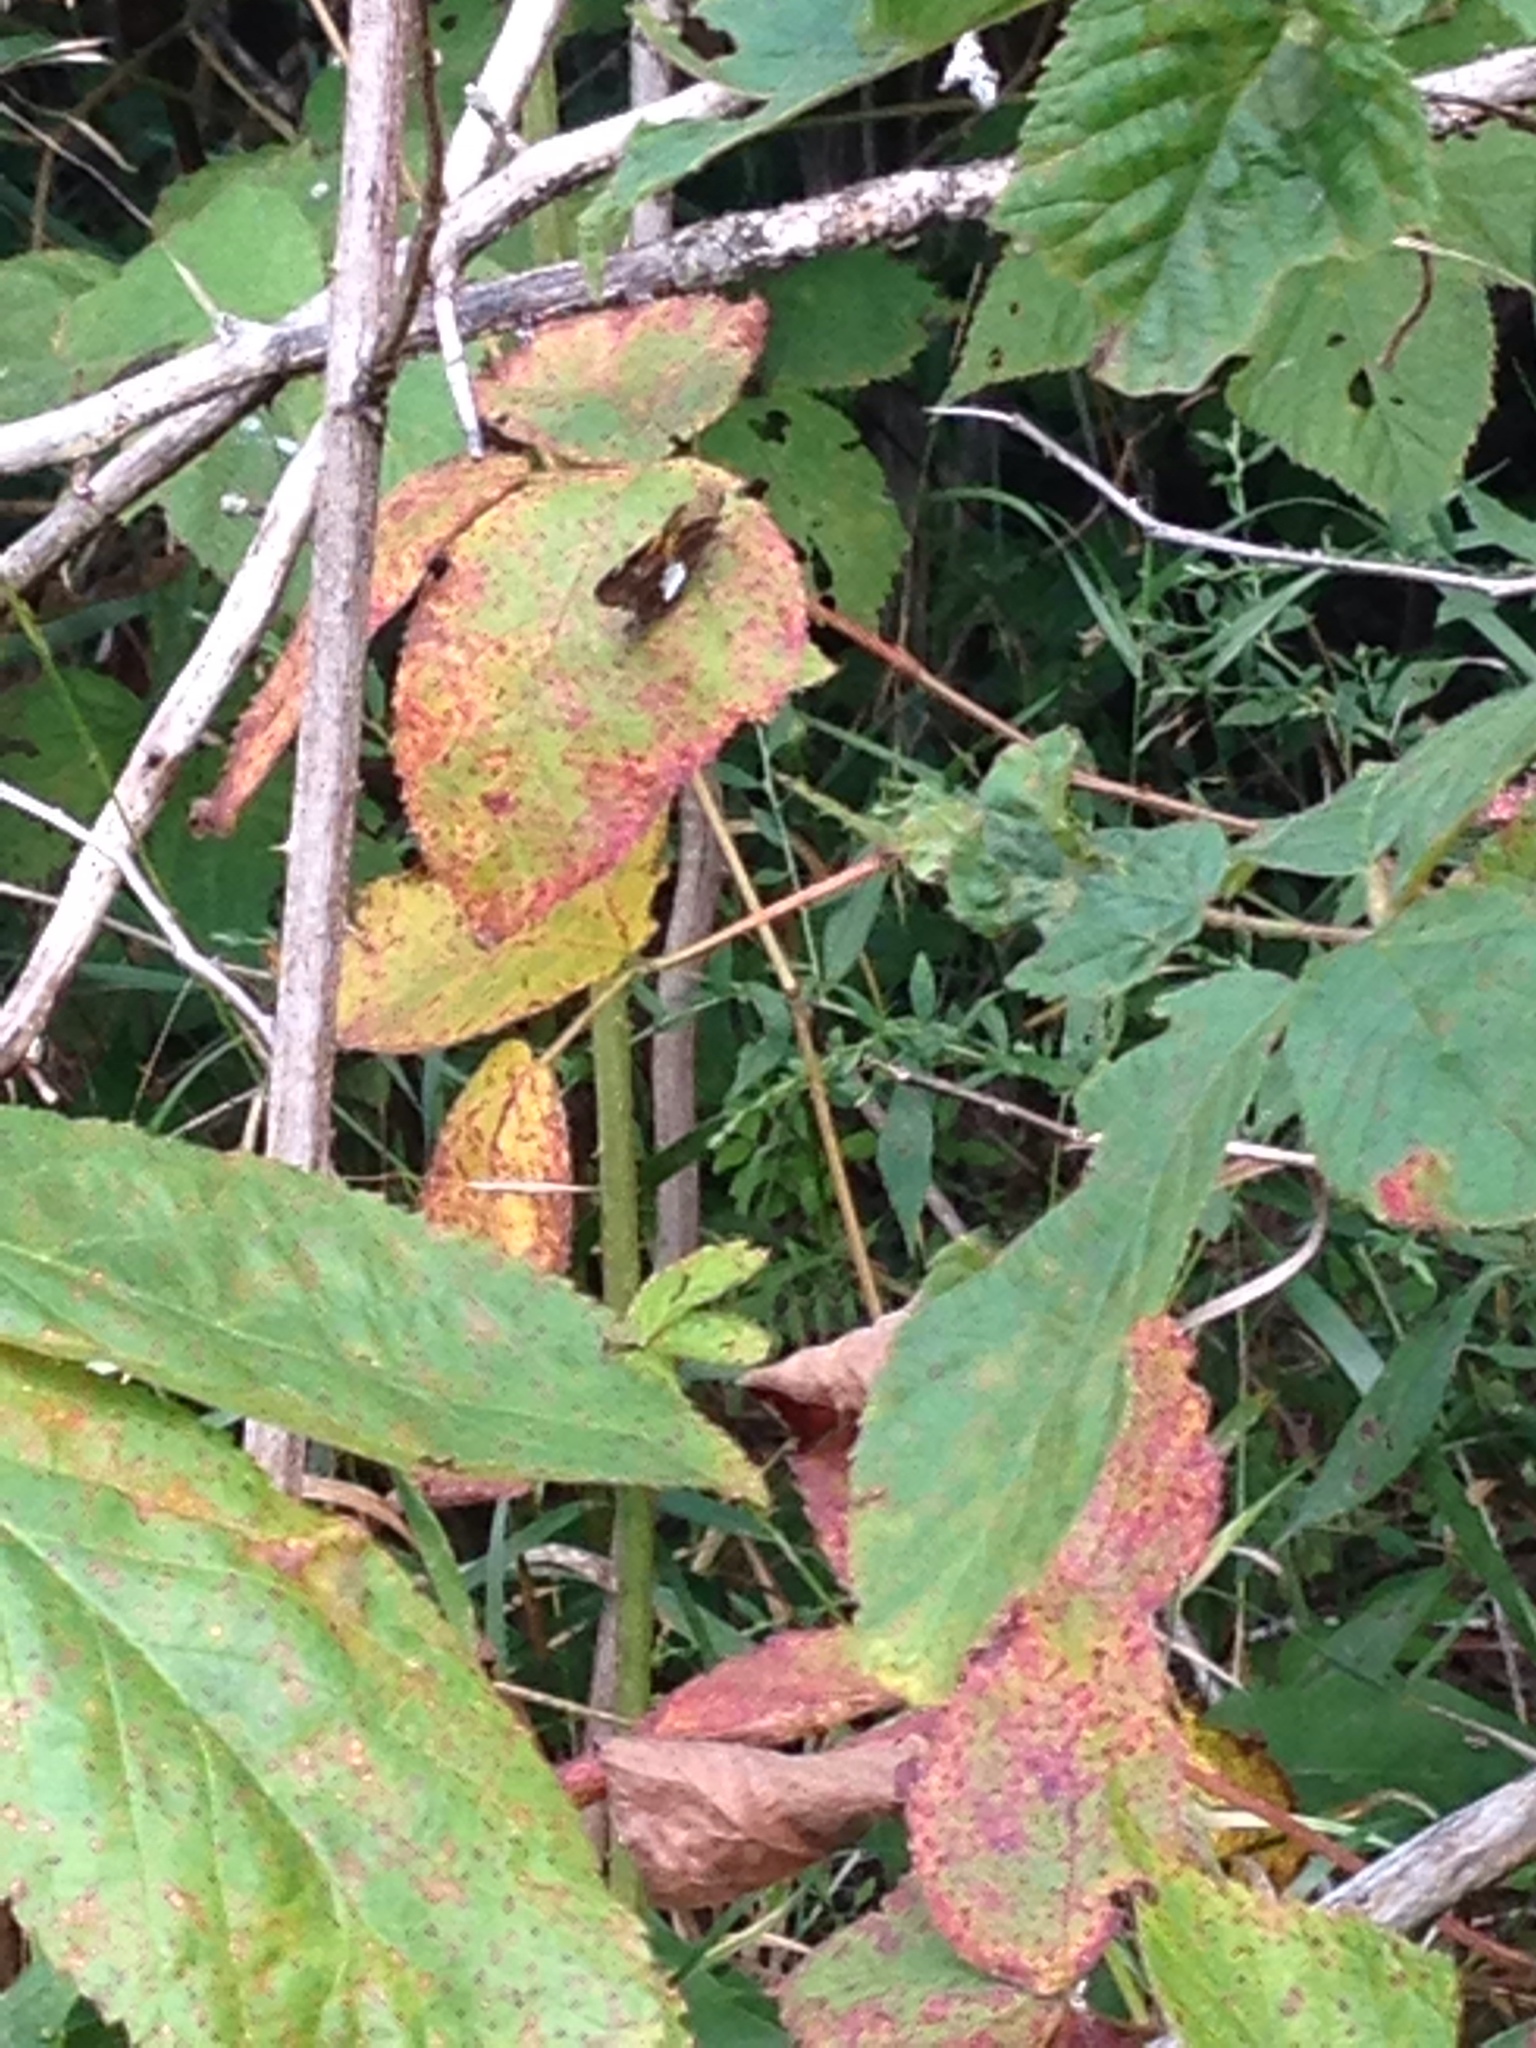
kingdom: Animalia
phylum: Arthropoda
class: Insecta
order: Lepidoptera
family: Hesperiidae
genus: Epargyreus
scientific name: Epargyreus clarus
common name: Silver-spotted skipper
